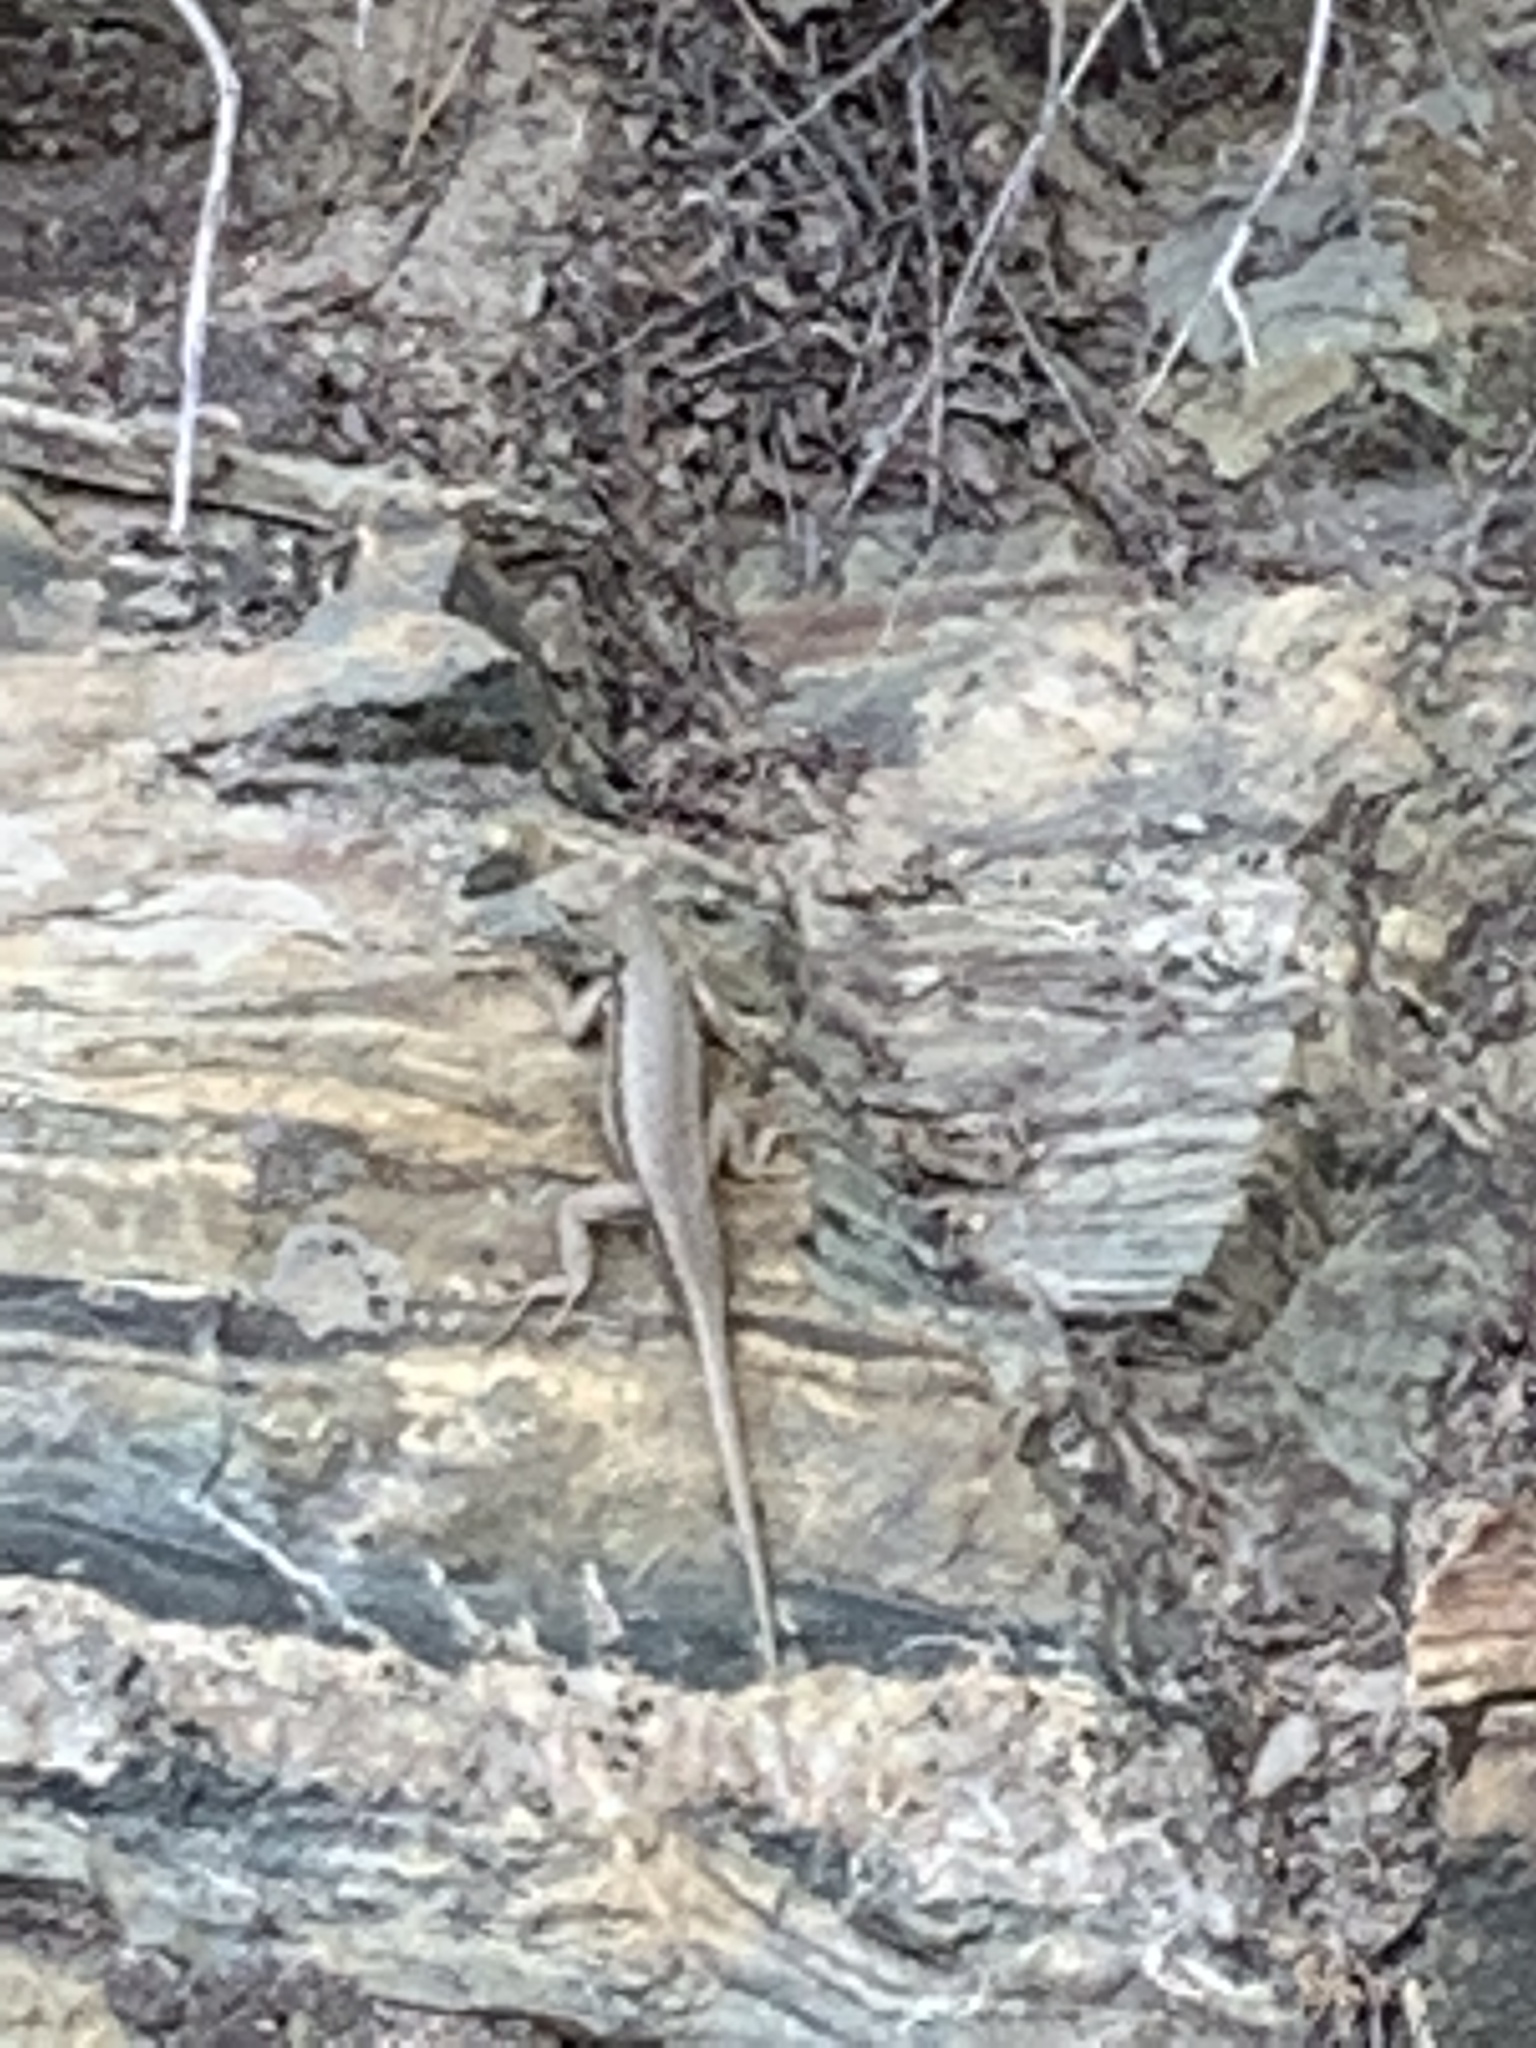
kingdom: Animalia
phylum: Chordata
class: Squamata
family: Phrynosomatidae
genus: Sceloporus
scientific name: Sceloporus graciosus
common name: Sagebrush lizard
